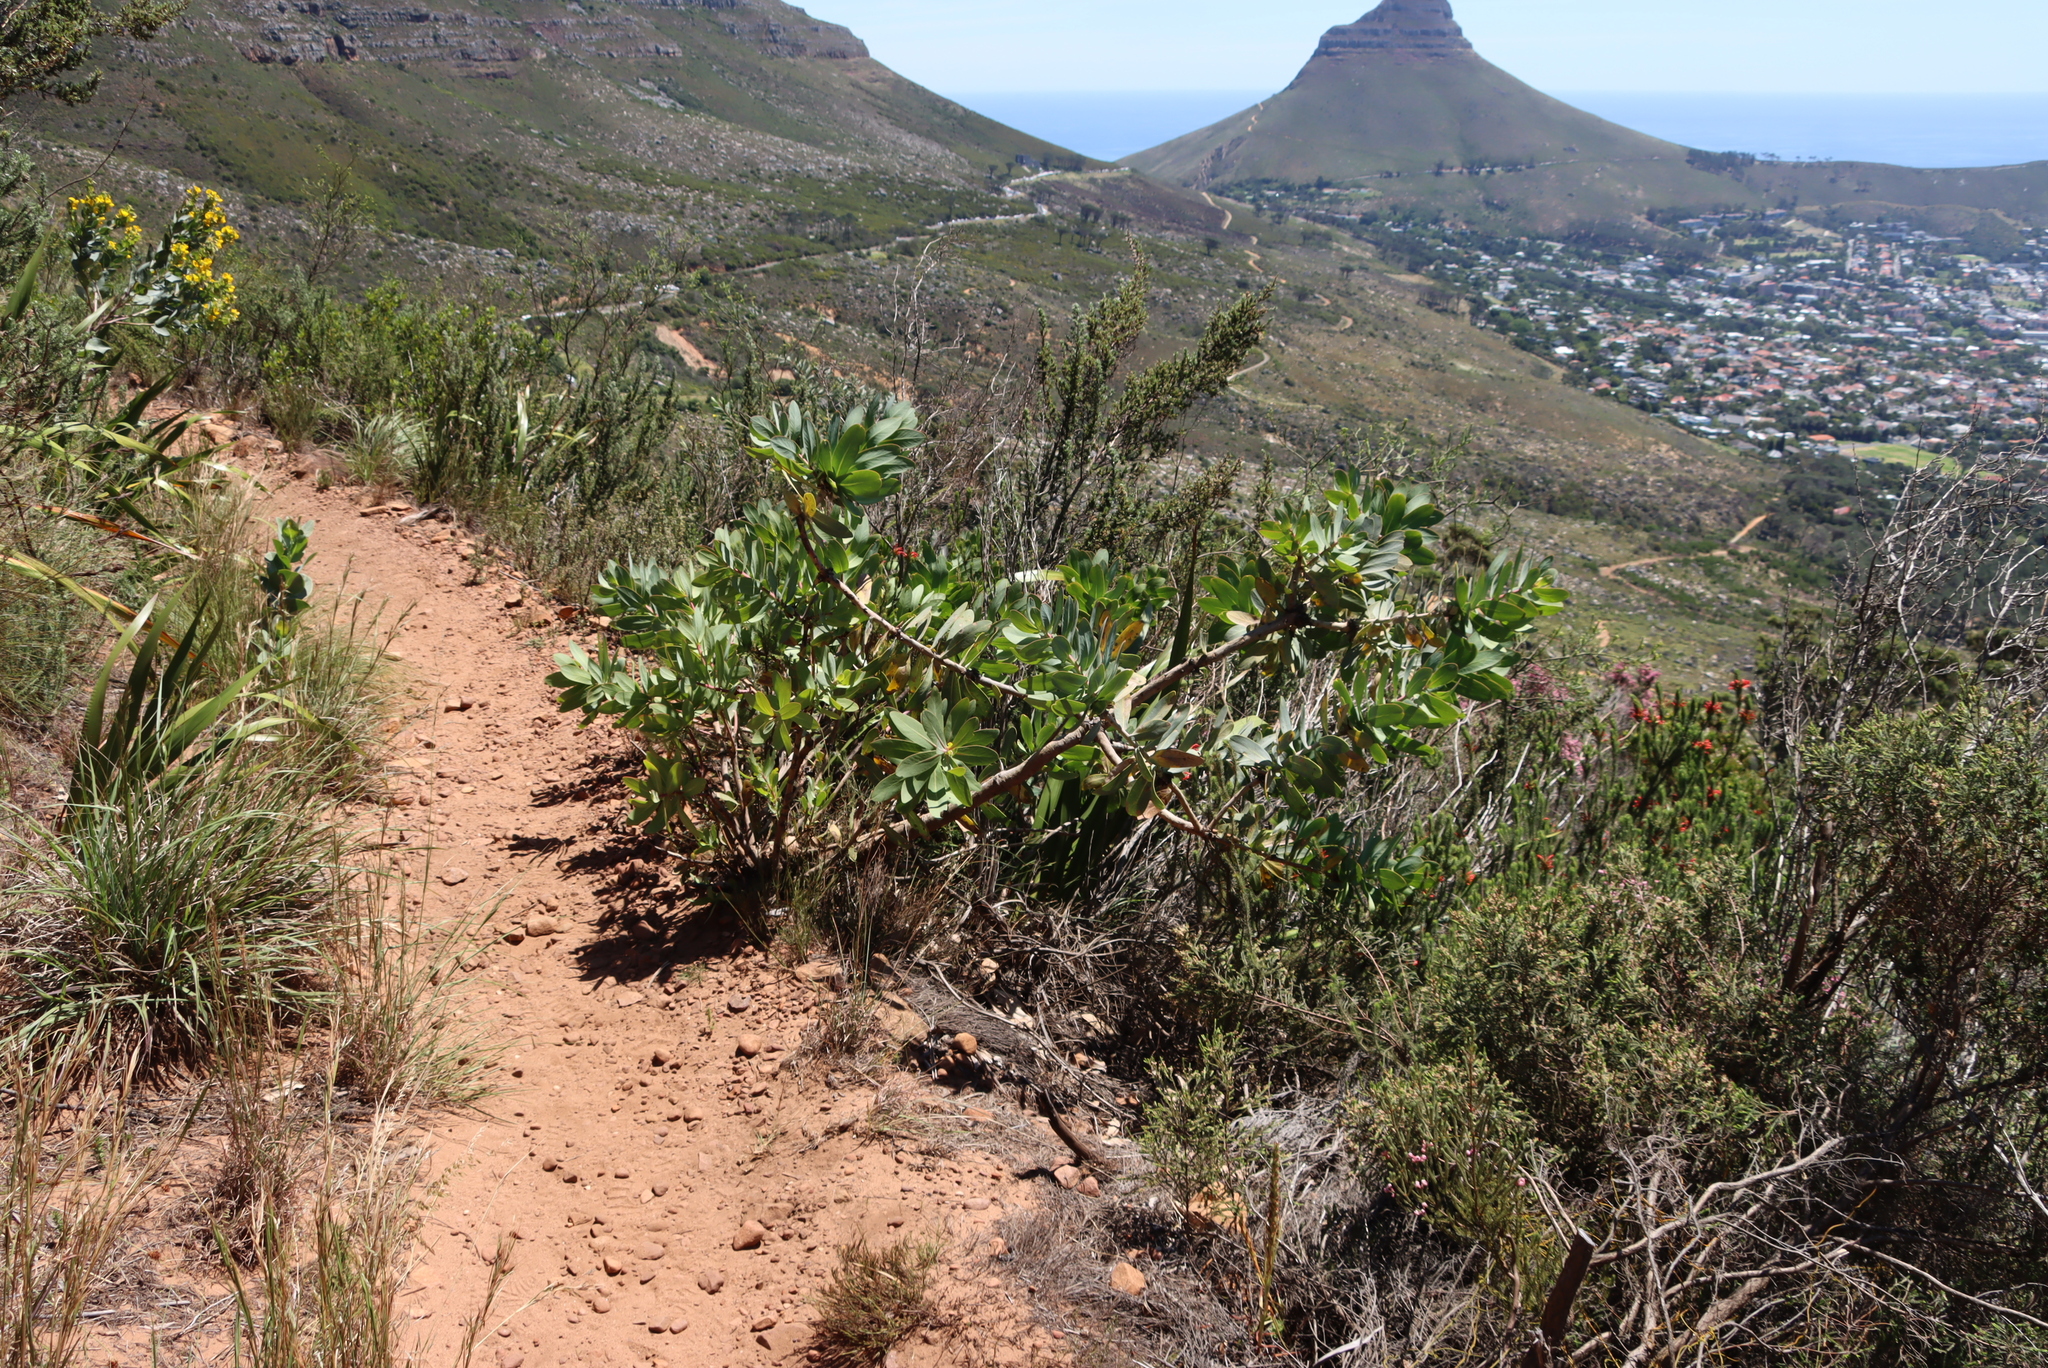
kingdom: Plantae
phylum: Tracheophyta
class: Magnoliopsida
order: Proteales
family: Proteaceae
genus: Protea
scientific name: Protea nitida
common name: Tree protea
